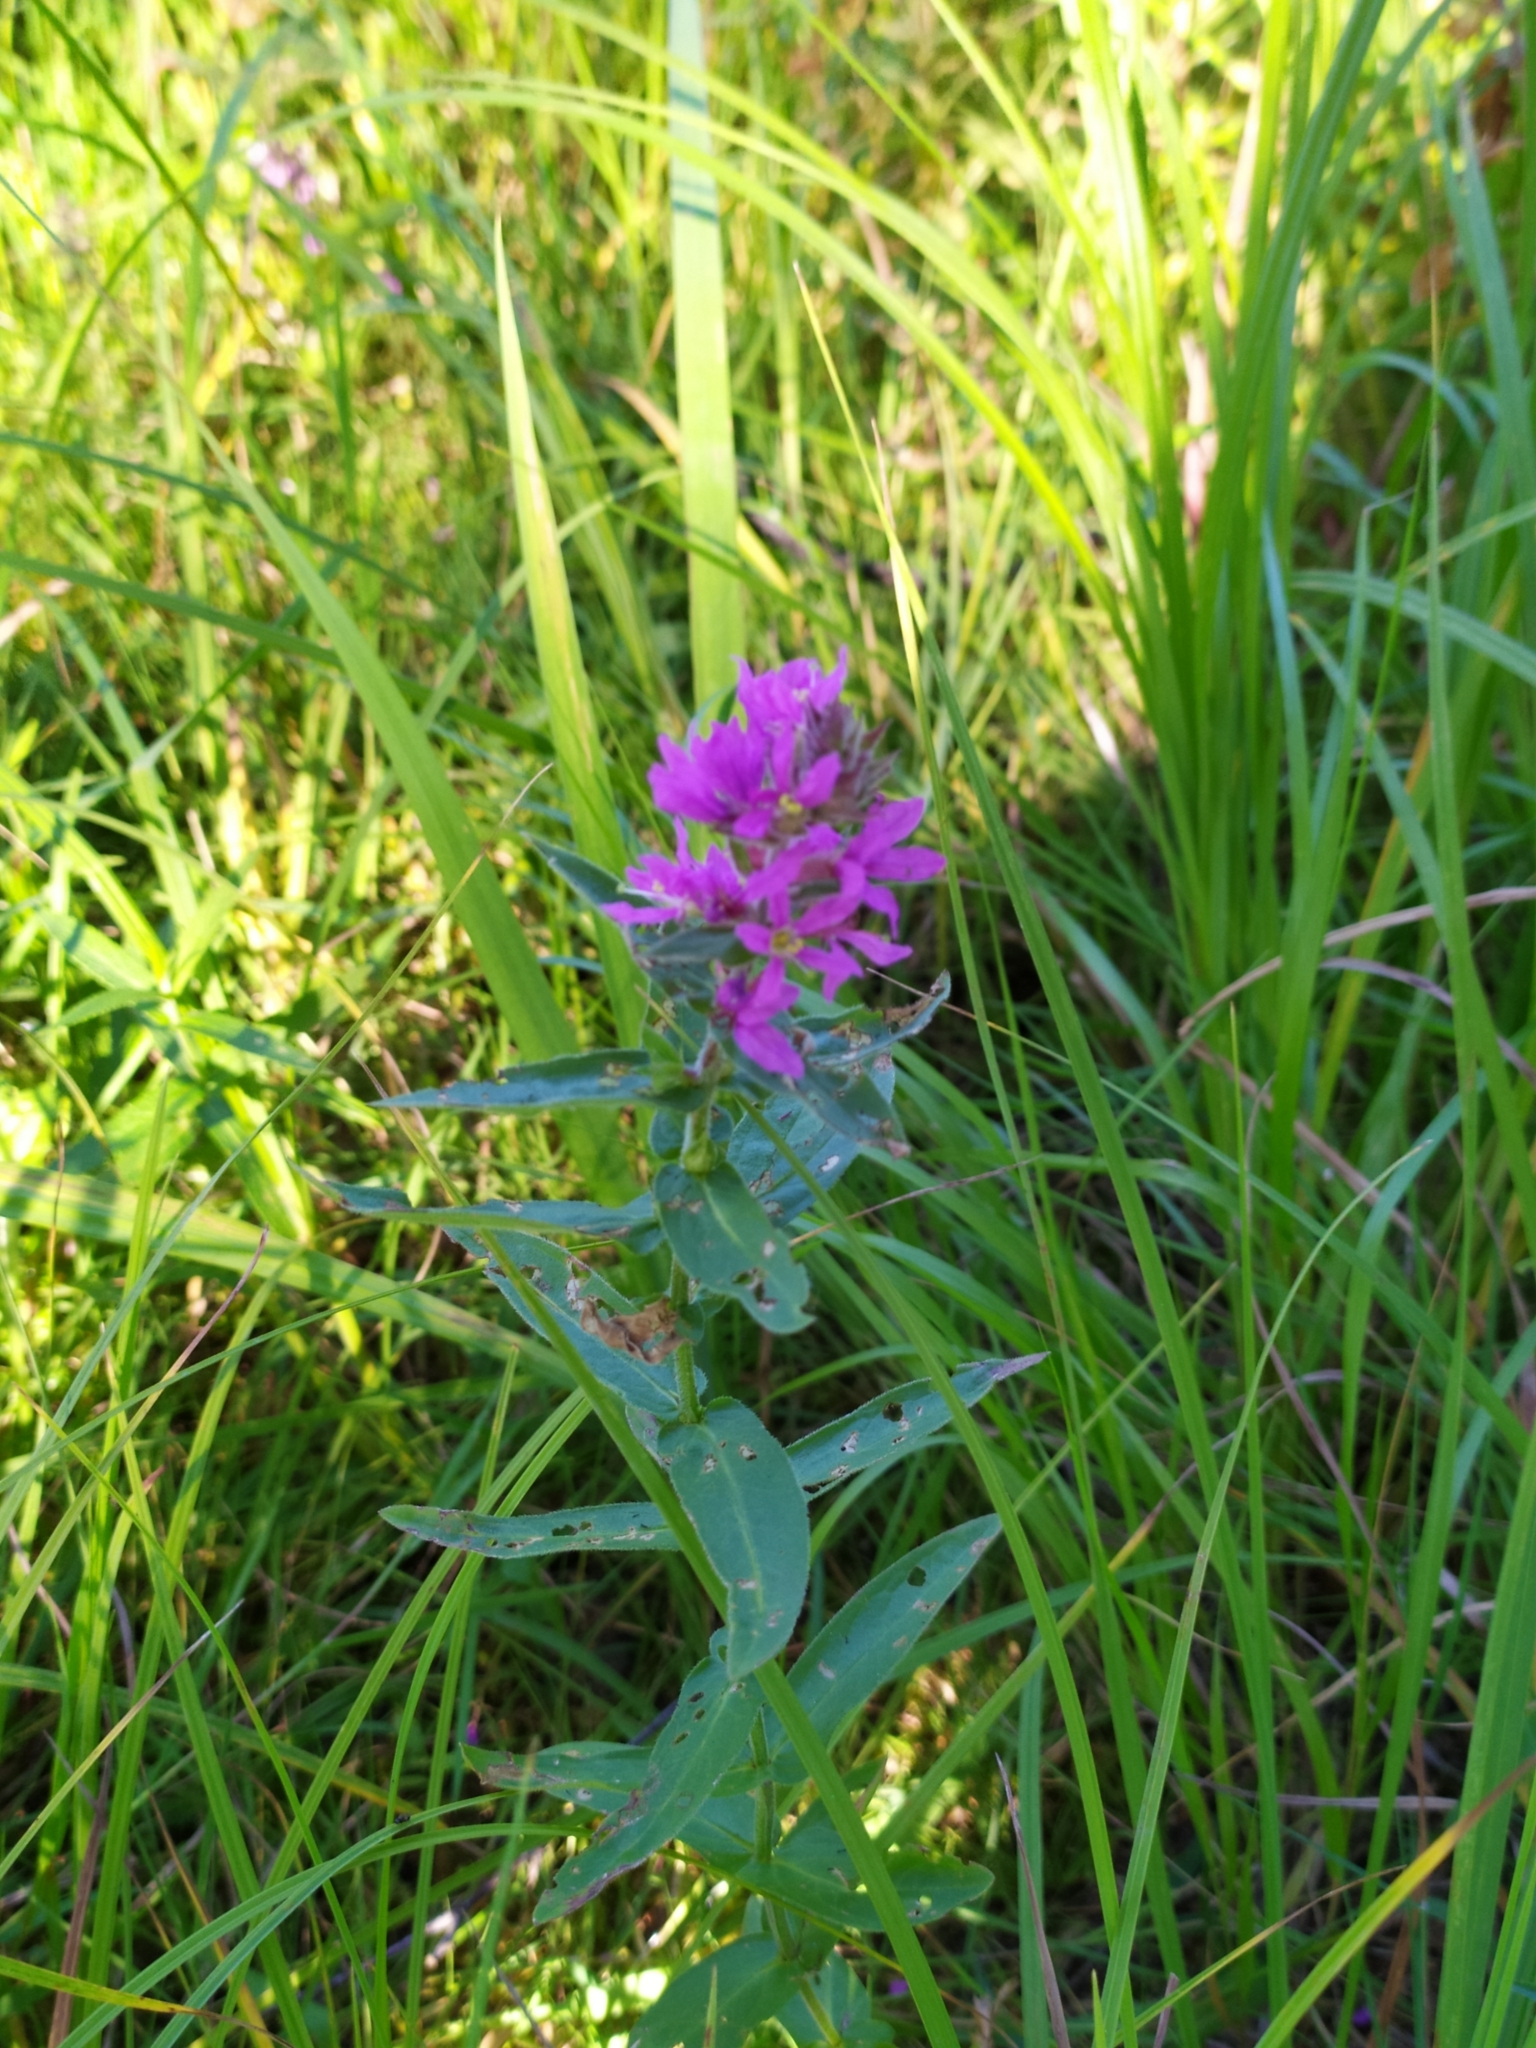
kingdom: Plantae
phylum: Tracheophyta
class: Magnoliopsida
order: Myrtales
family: Lythraceae
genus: Lythrum
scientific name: Lythrum salicaria
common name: Purple loosestrife
